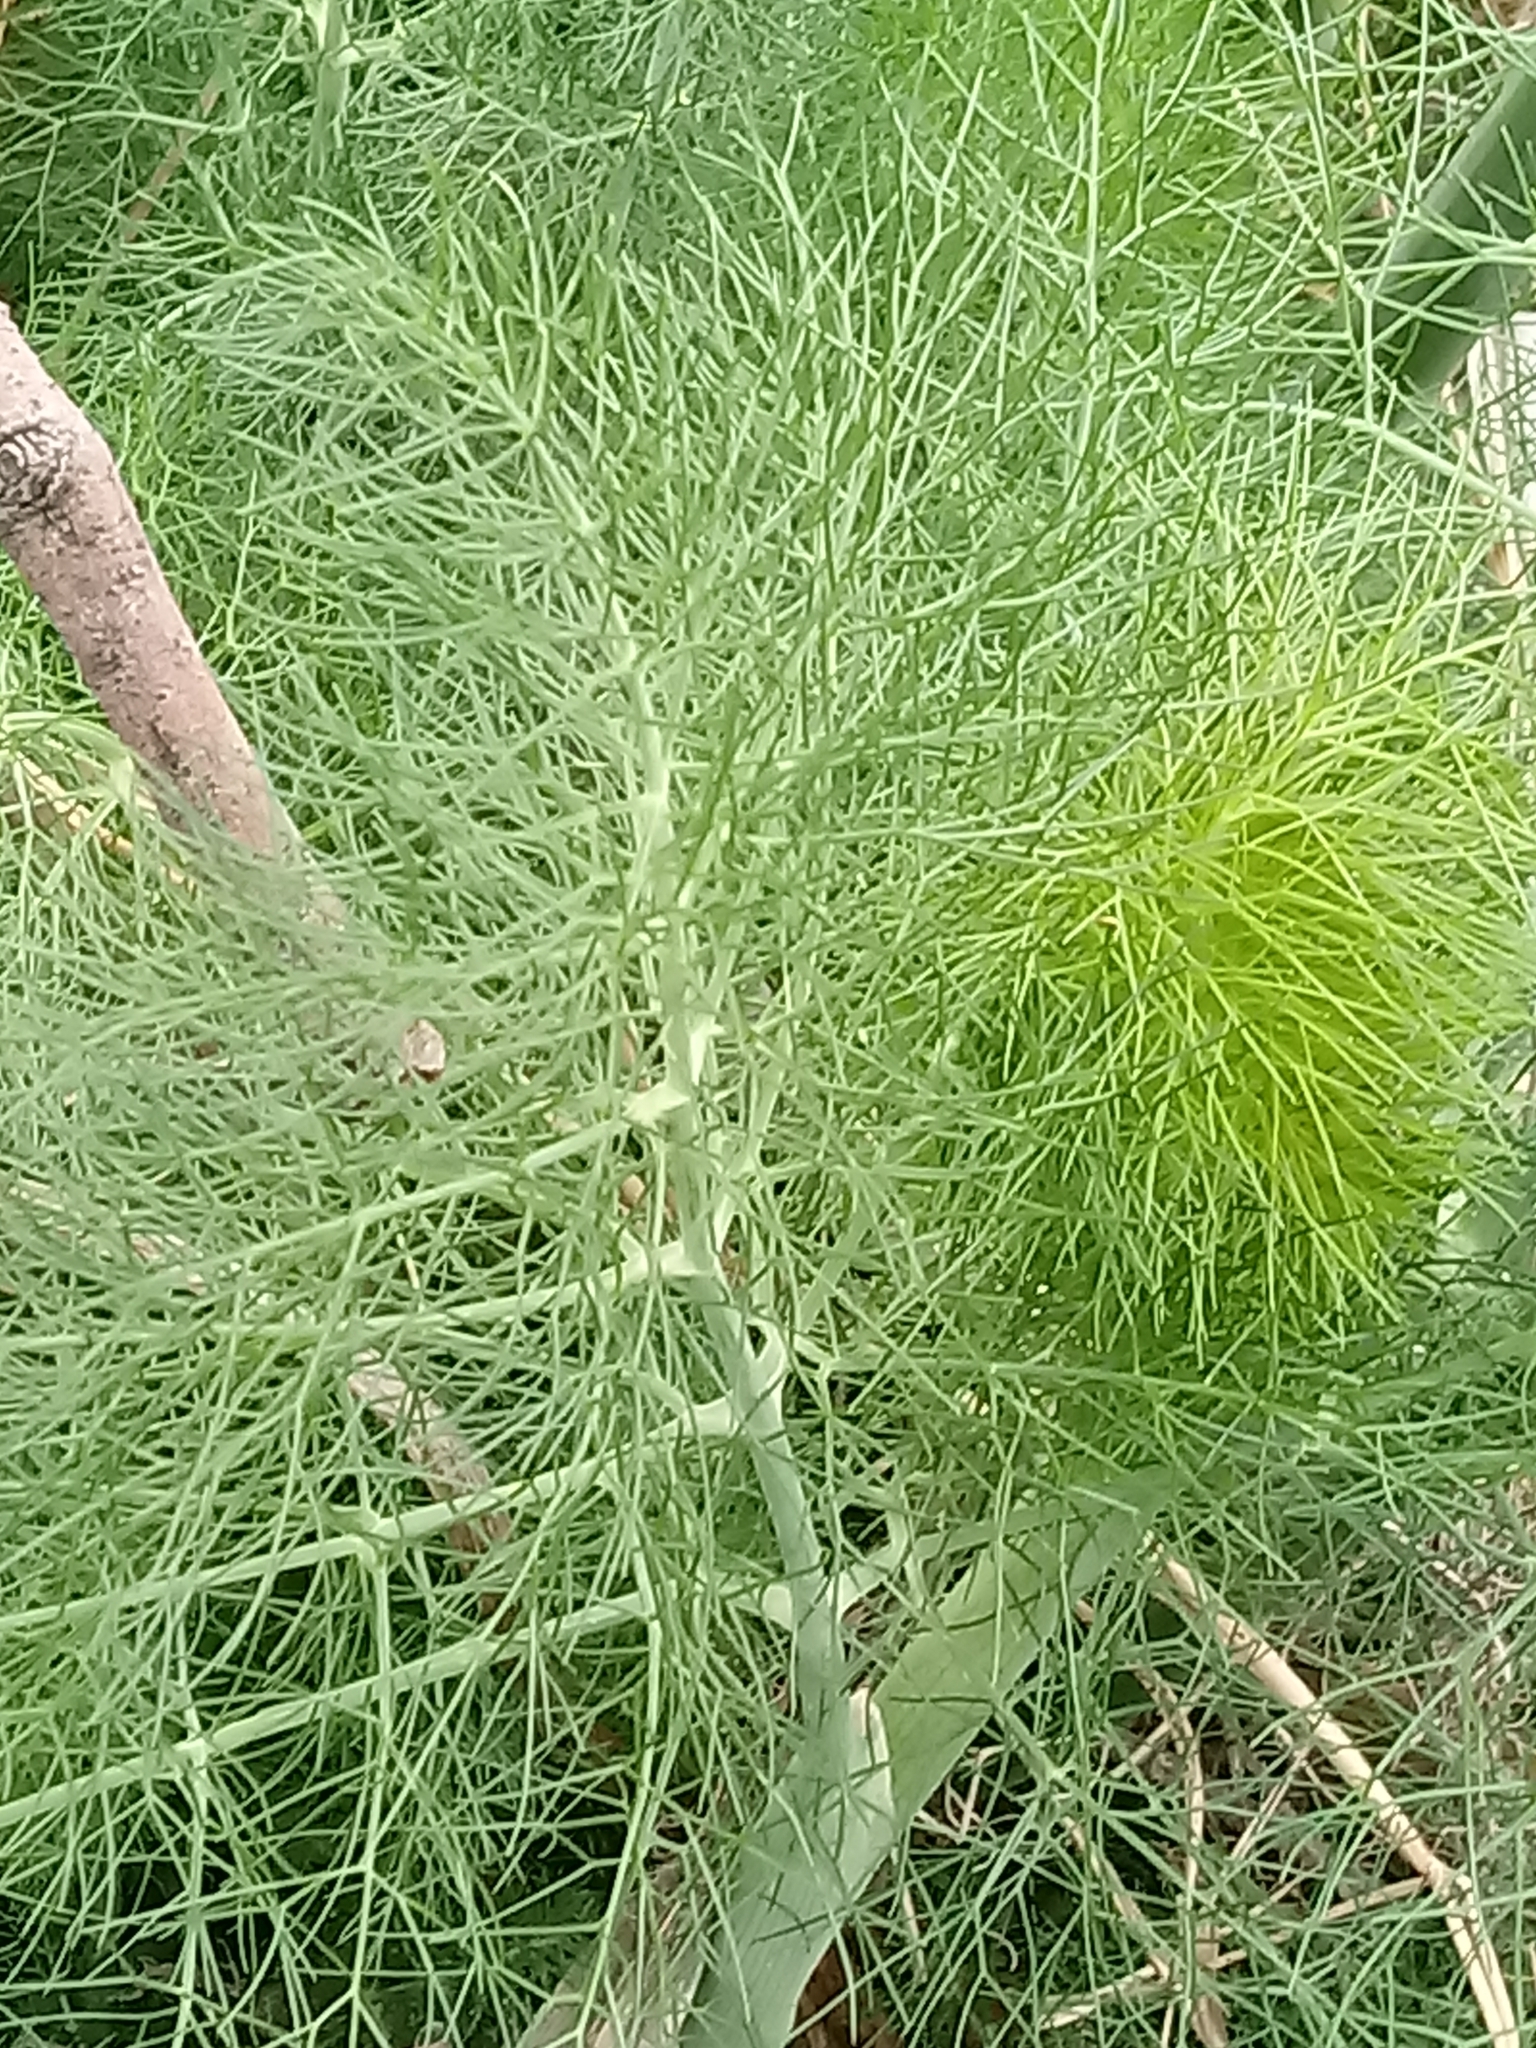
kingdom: Plantae
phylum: Tracheophyta
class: Magnoliopsida
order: Apiales
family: Apiaceae
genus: Foeniculum
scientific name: Foeniculum vulgare
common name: Fennel
